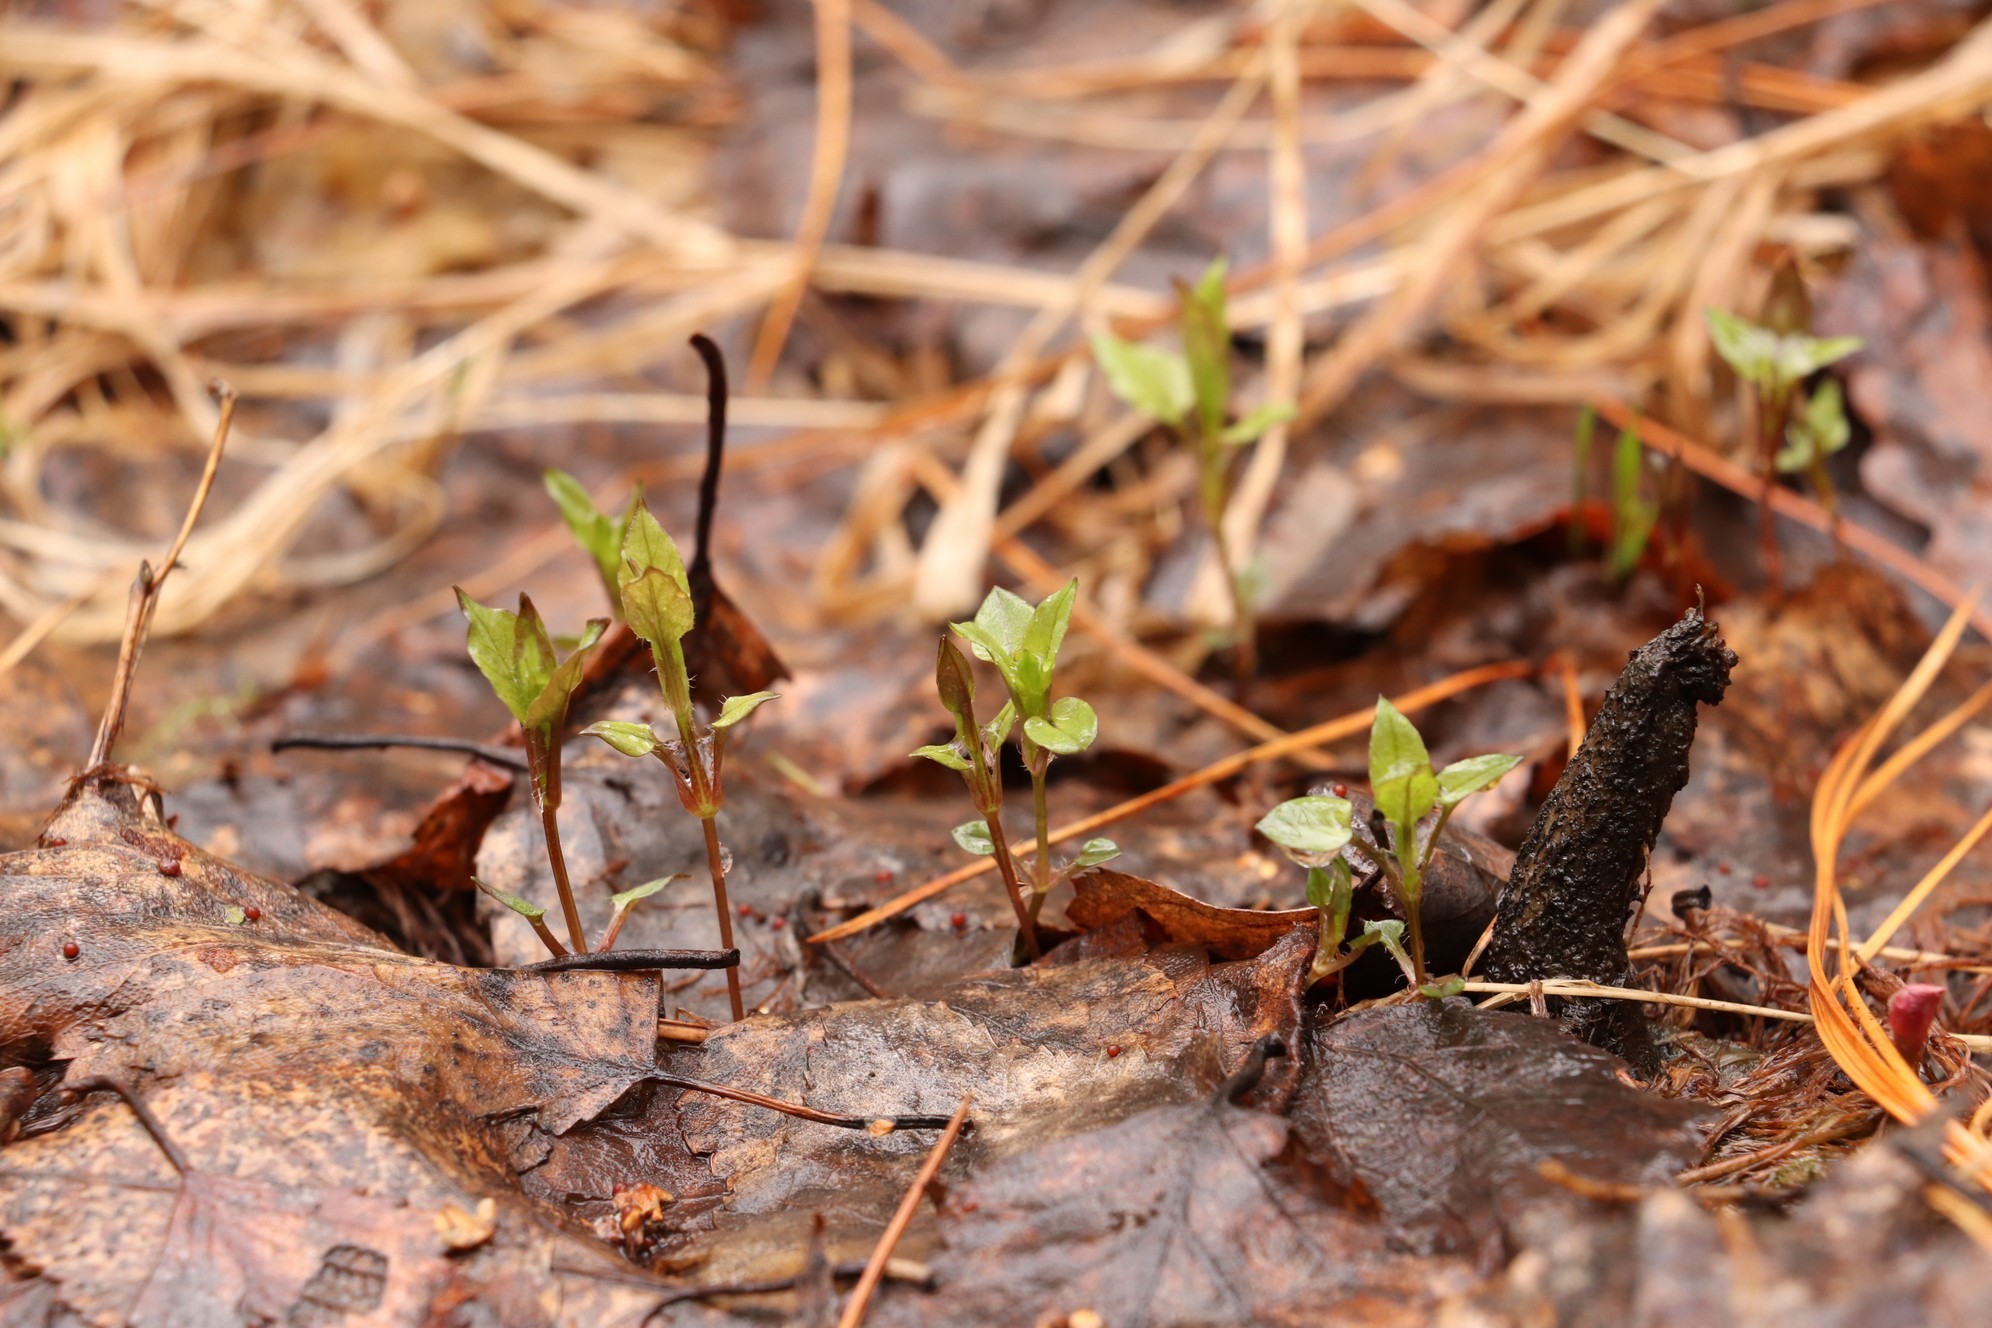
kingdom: Plantae
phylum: Tracheophyta
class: Magnoliopsida
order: Caryophyllales
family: Caryophyllaceae
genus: Stellaria
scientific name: Stellaria bungeana
